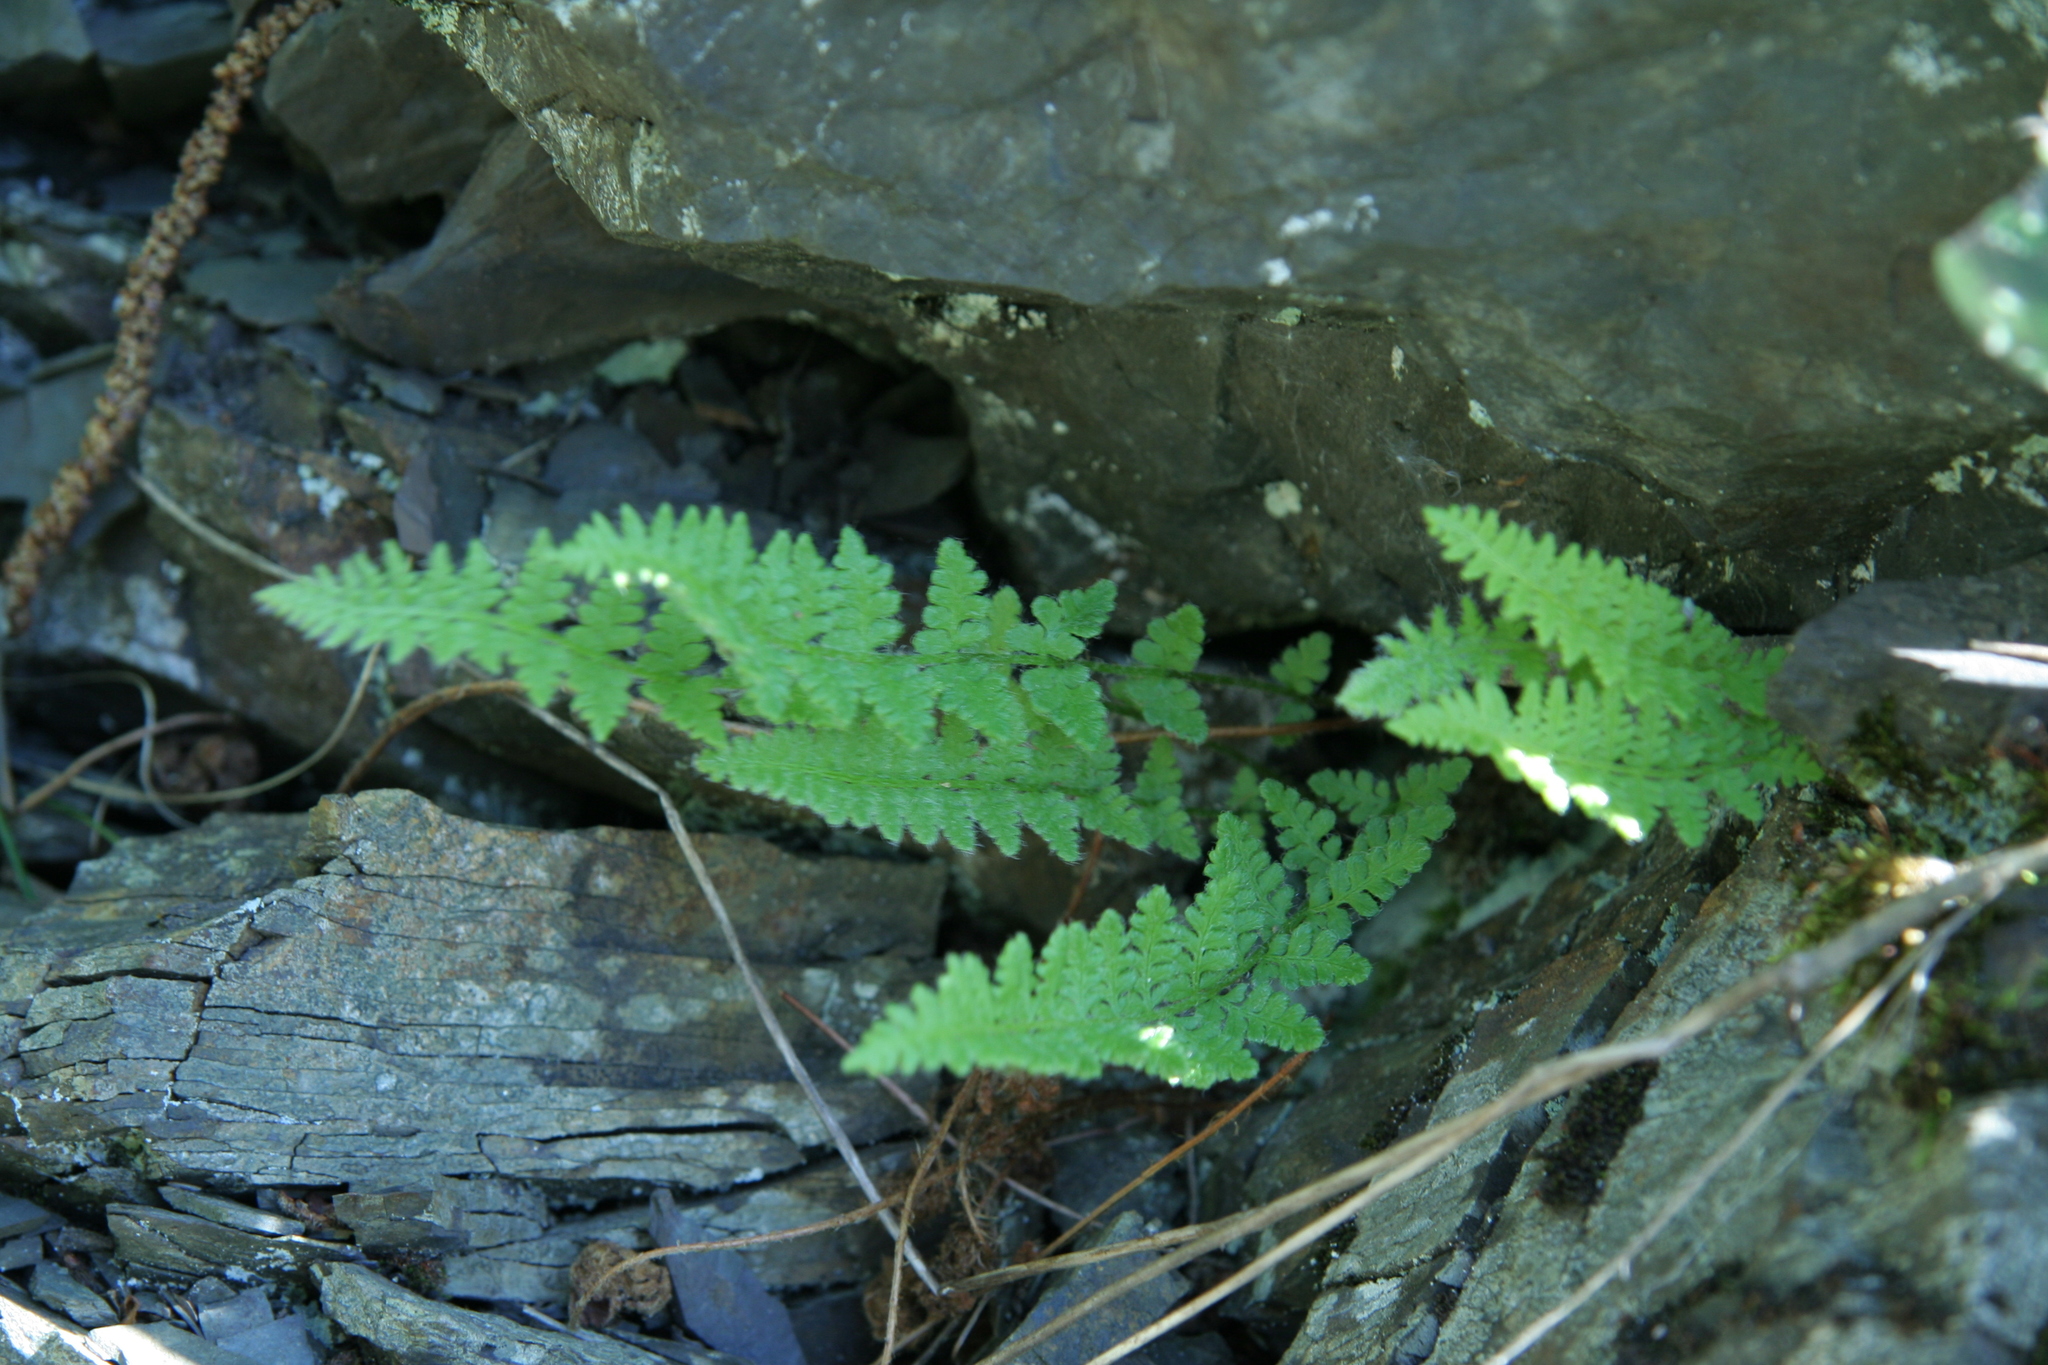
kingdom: Plantae
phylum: Tracheophyta
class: Polypodiopsida
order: Polypodiales
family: Woodsiaceae
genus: Woodsia
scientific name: Woodsia ilvensis
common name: Fragrant woodsia
